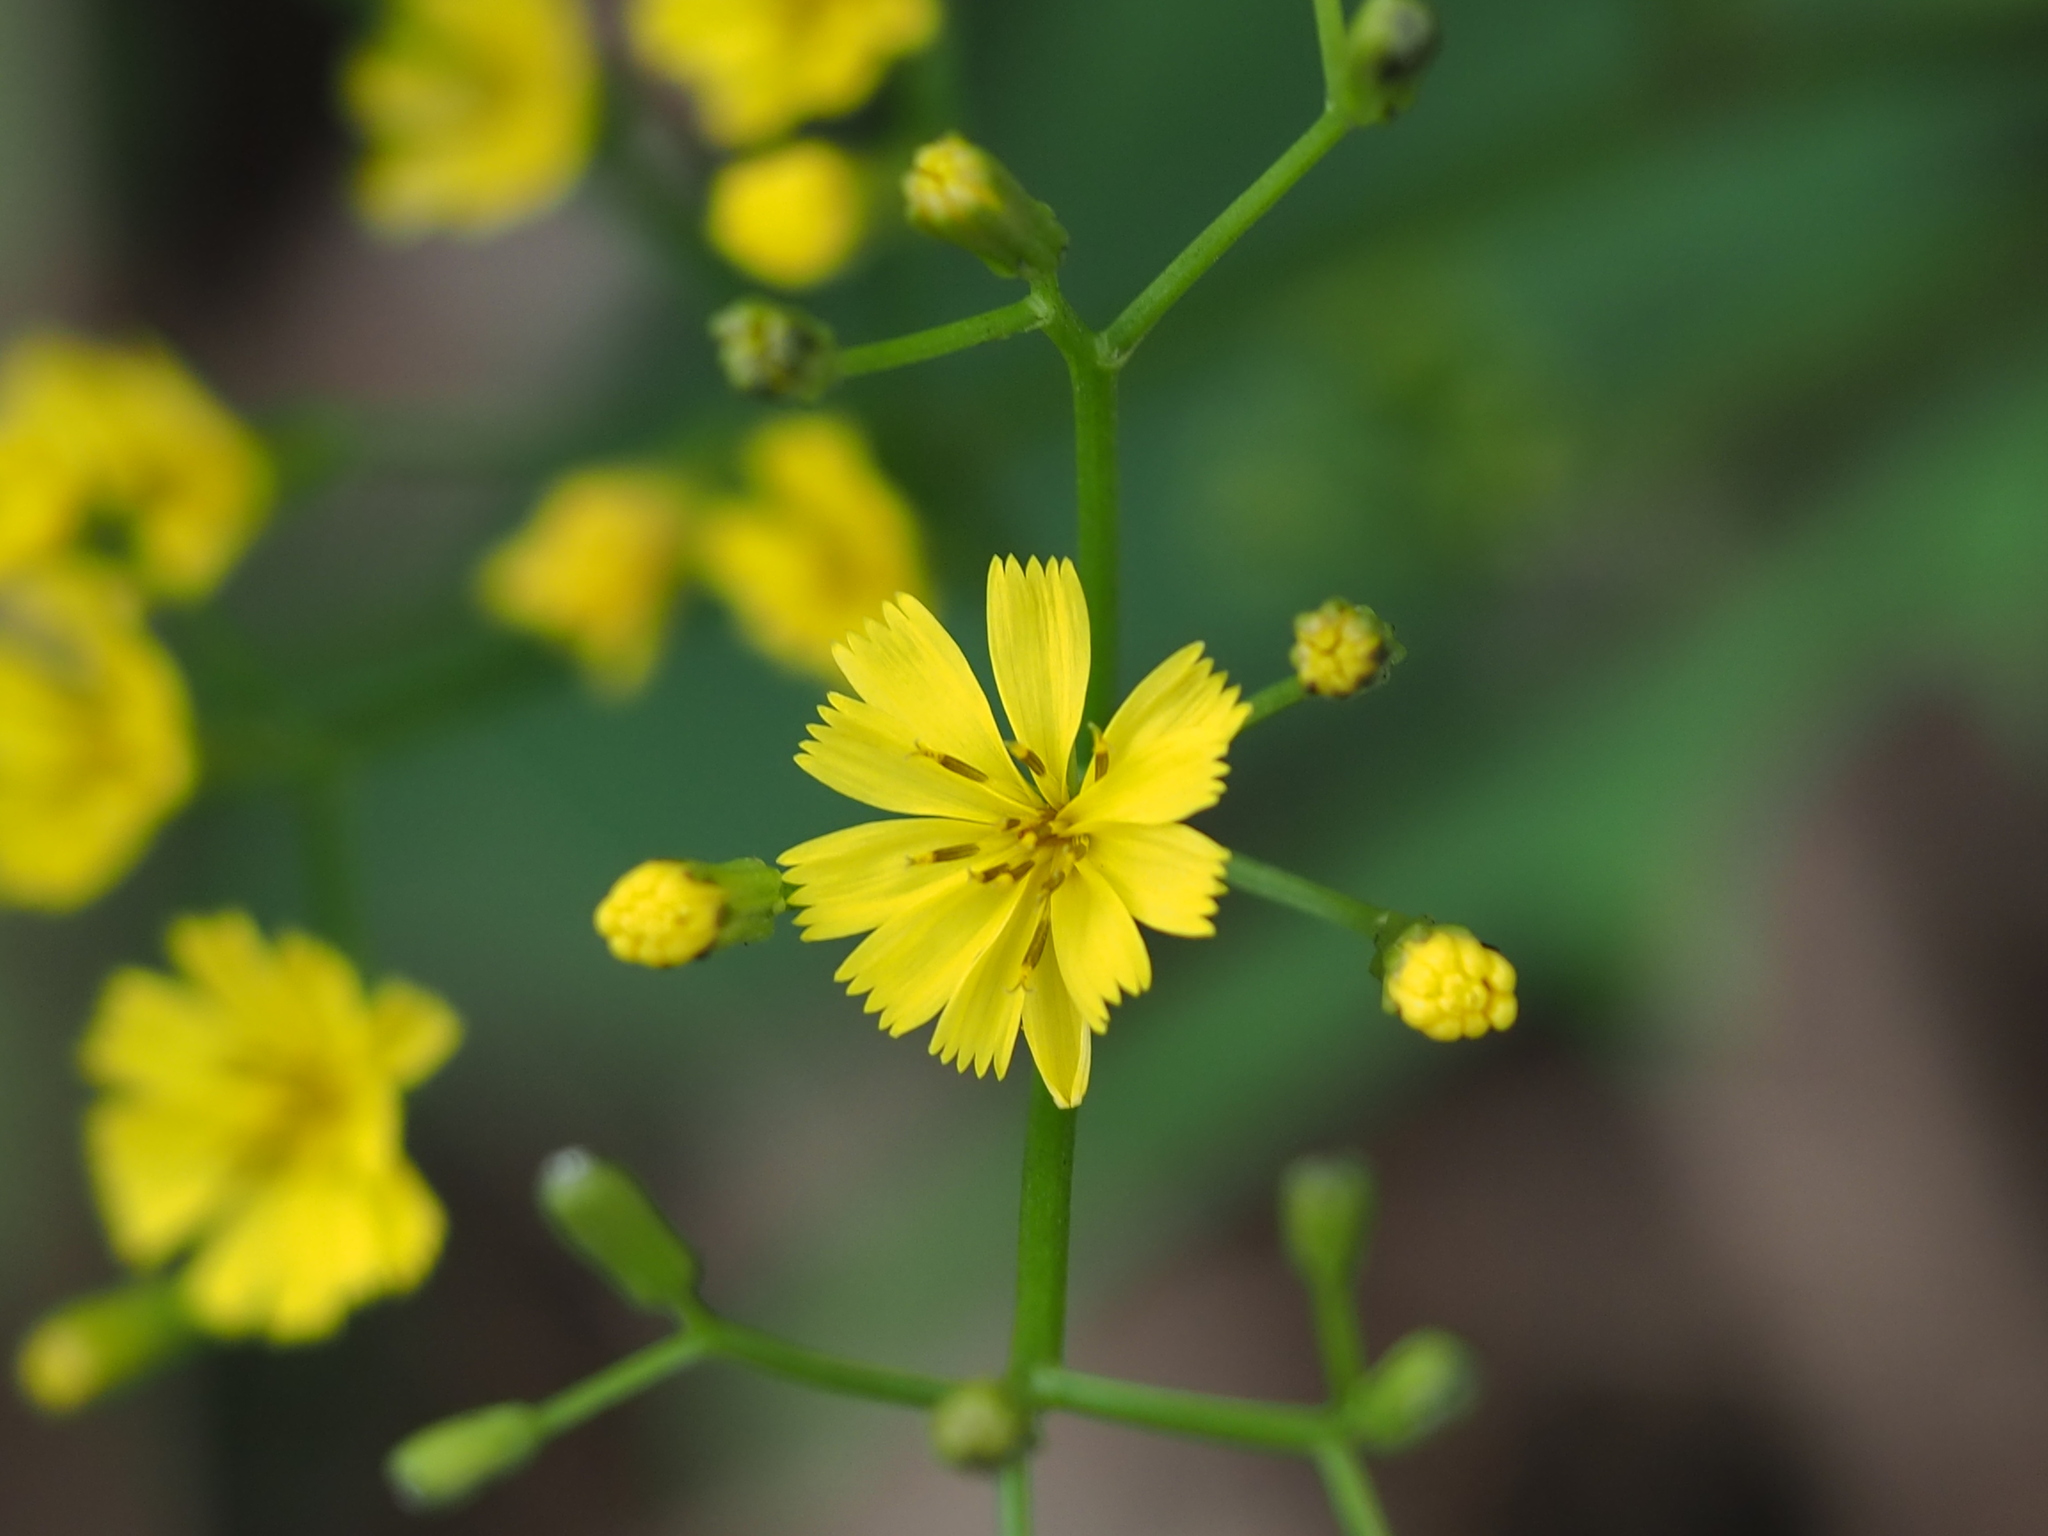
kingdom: Plantae
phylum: Tracheophyta
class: Magnoliopsida
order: Asterales
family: Asteraceae
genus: Ixeridium
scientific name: Ixeridium laevigatum
